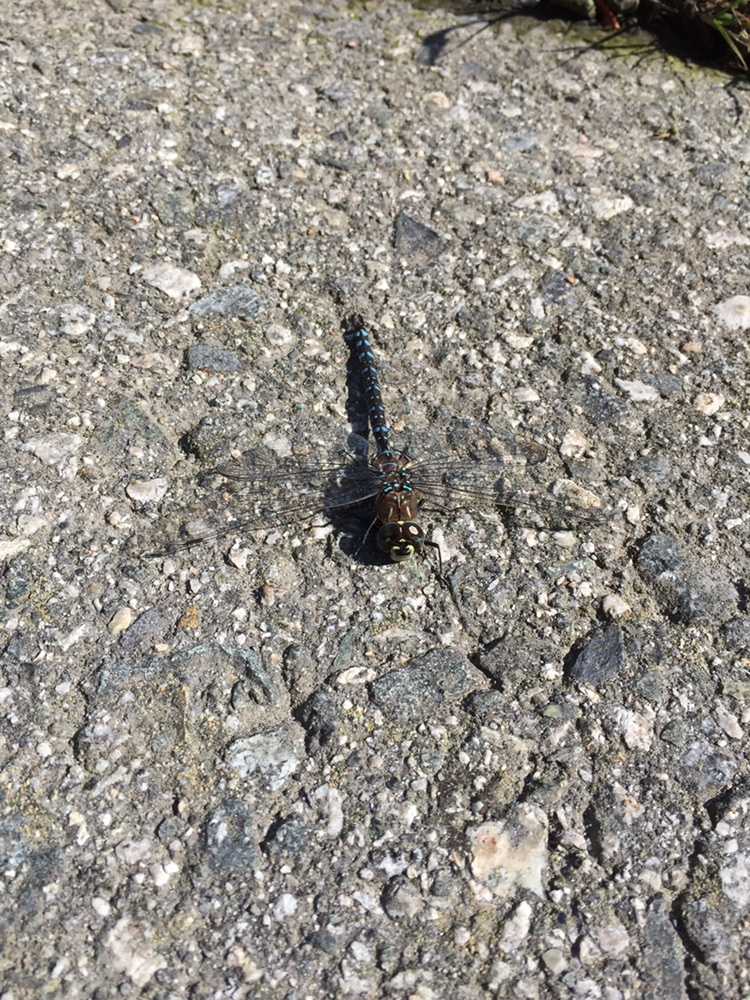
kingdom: Animalia
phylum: Arthropoda
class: Insecta
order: Odonata
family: Aeshnidae
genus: Aeshna
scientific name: Aeshna interrupta
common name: Variable darner
